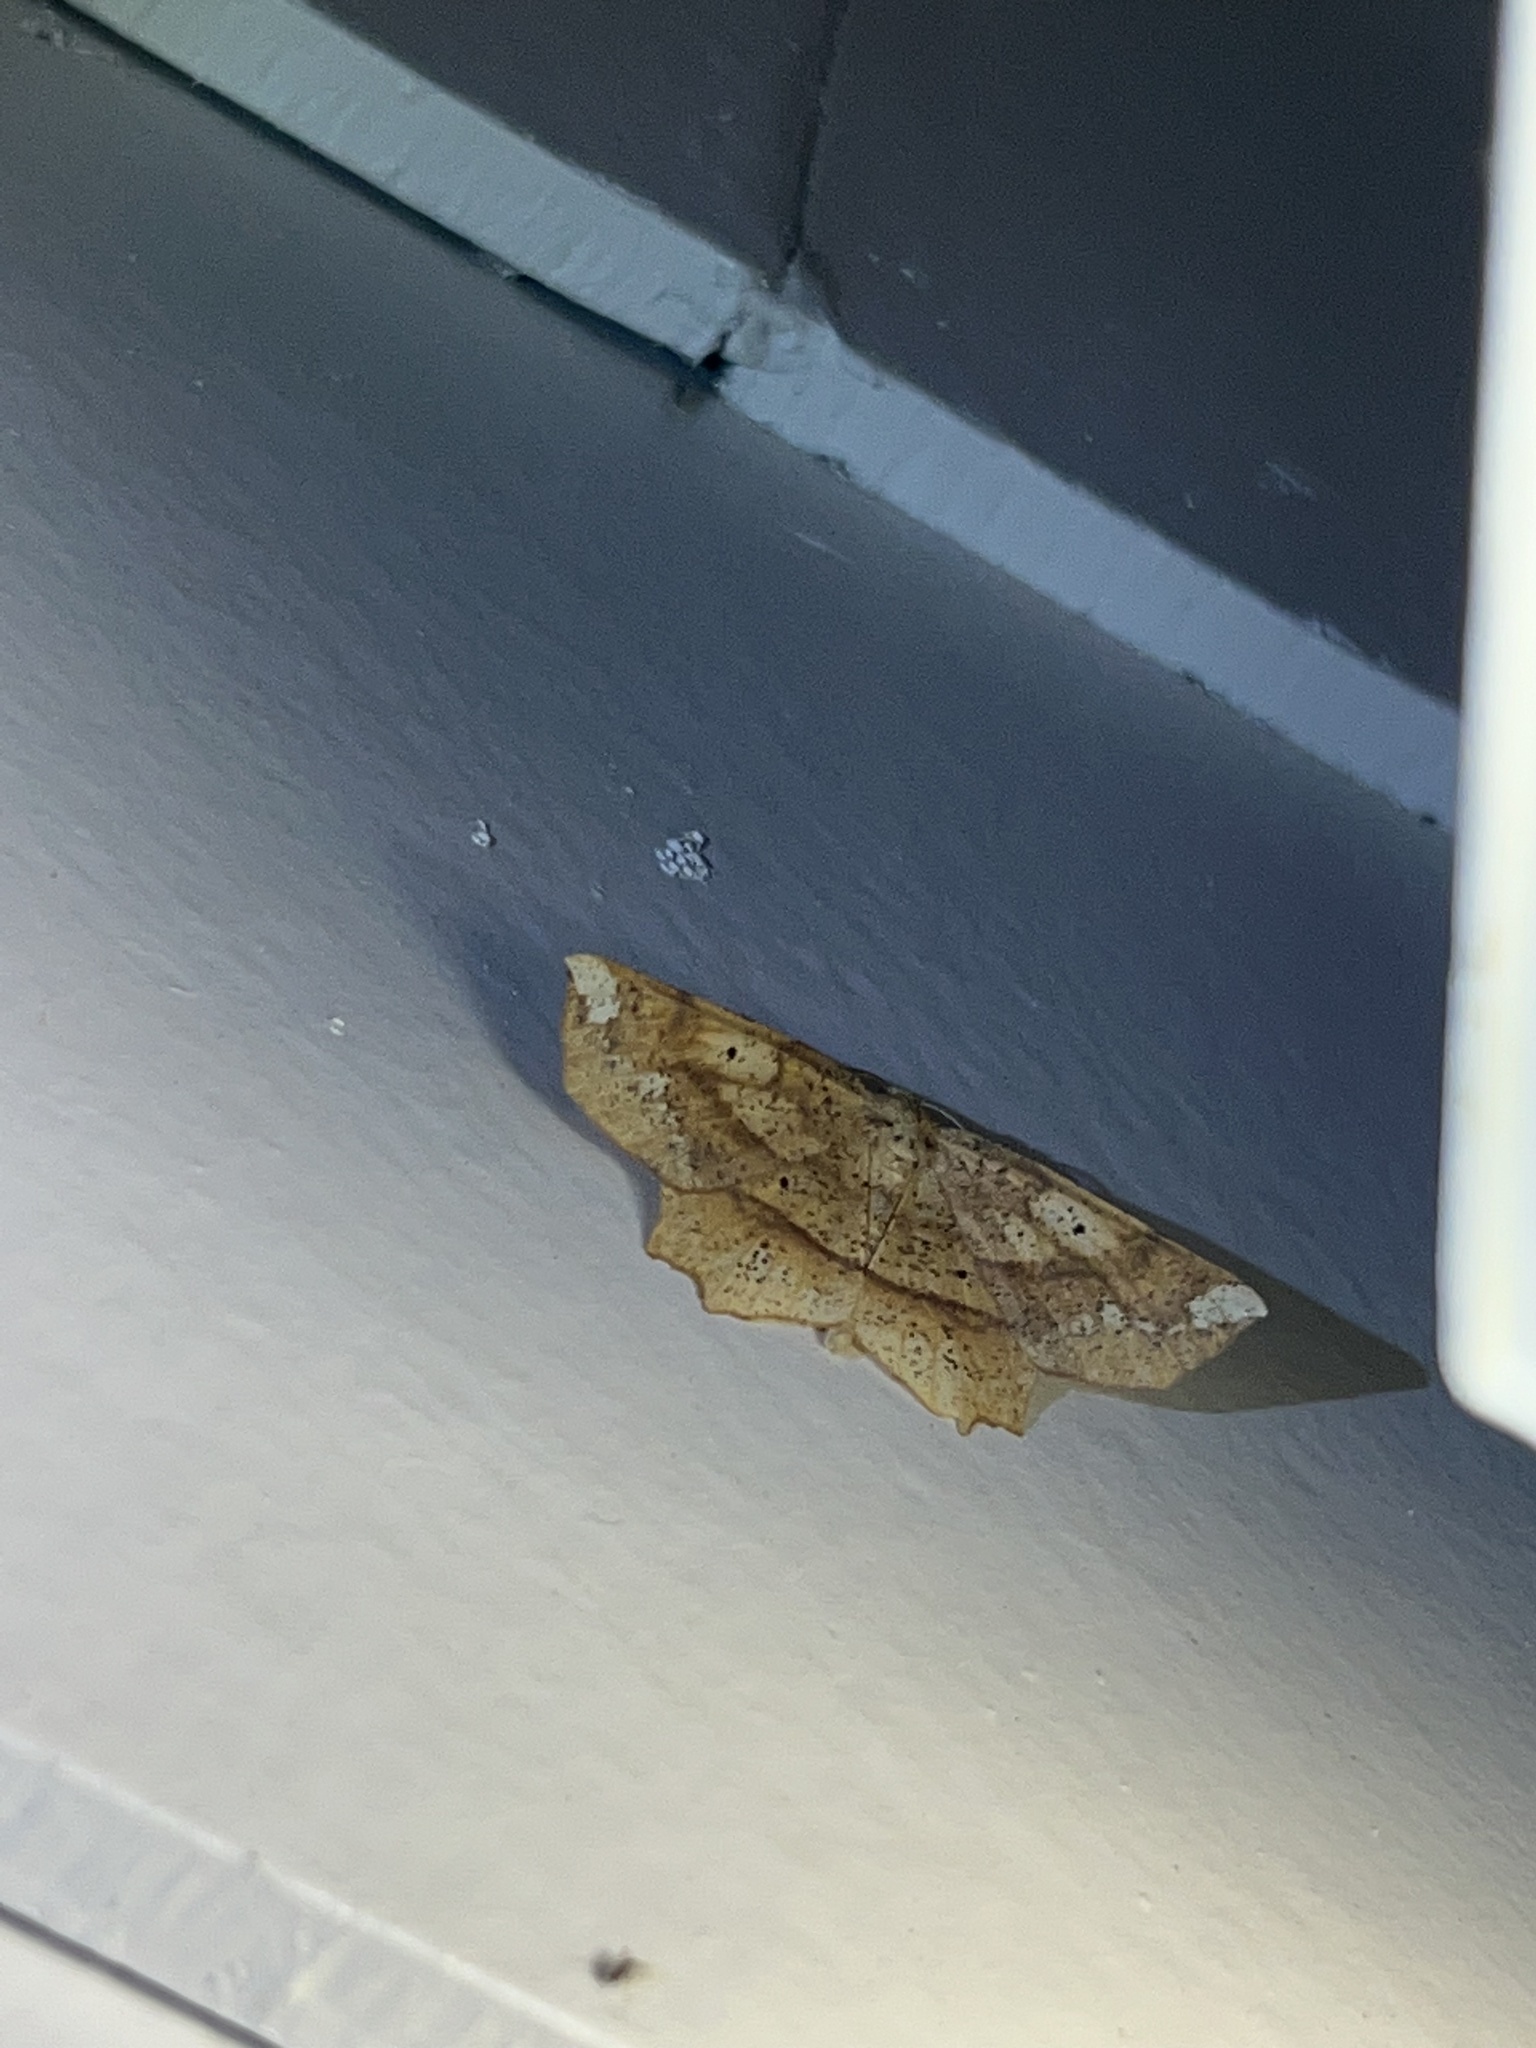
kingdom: Animalia
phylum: Arthropoda
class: Insecta
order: Lepidoptera
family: Geometridae
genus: Euchlaena
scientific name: Euchlaena amoenaria
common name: Deep yellow euchlaena
